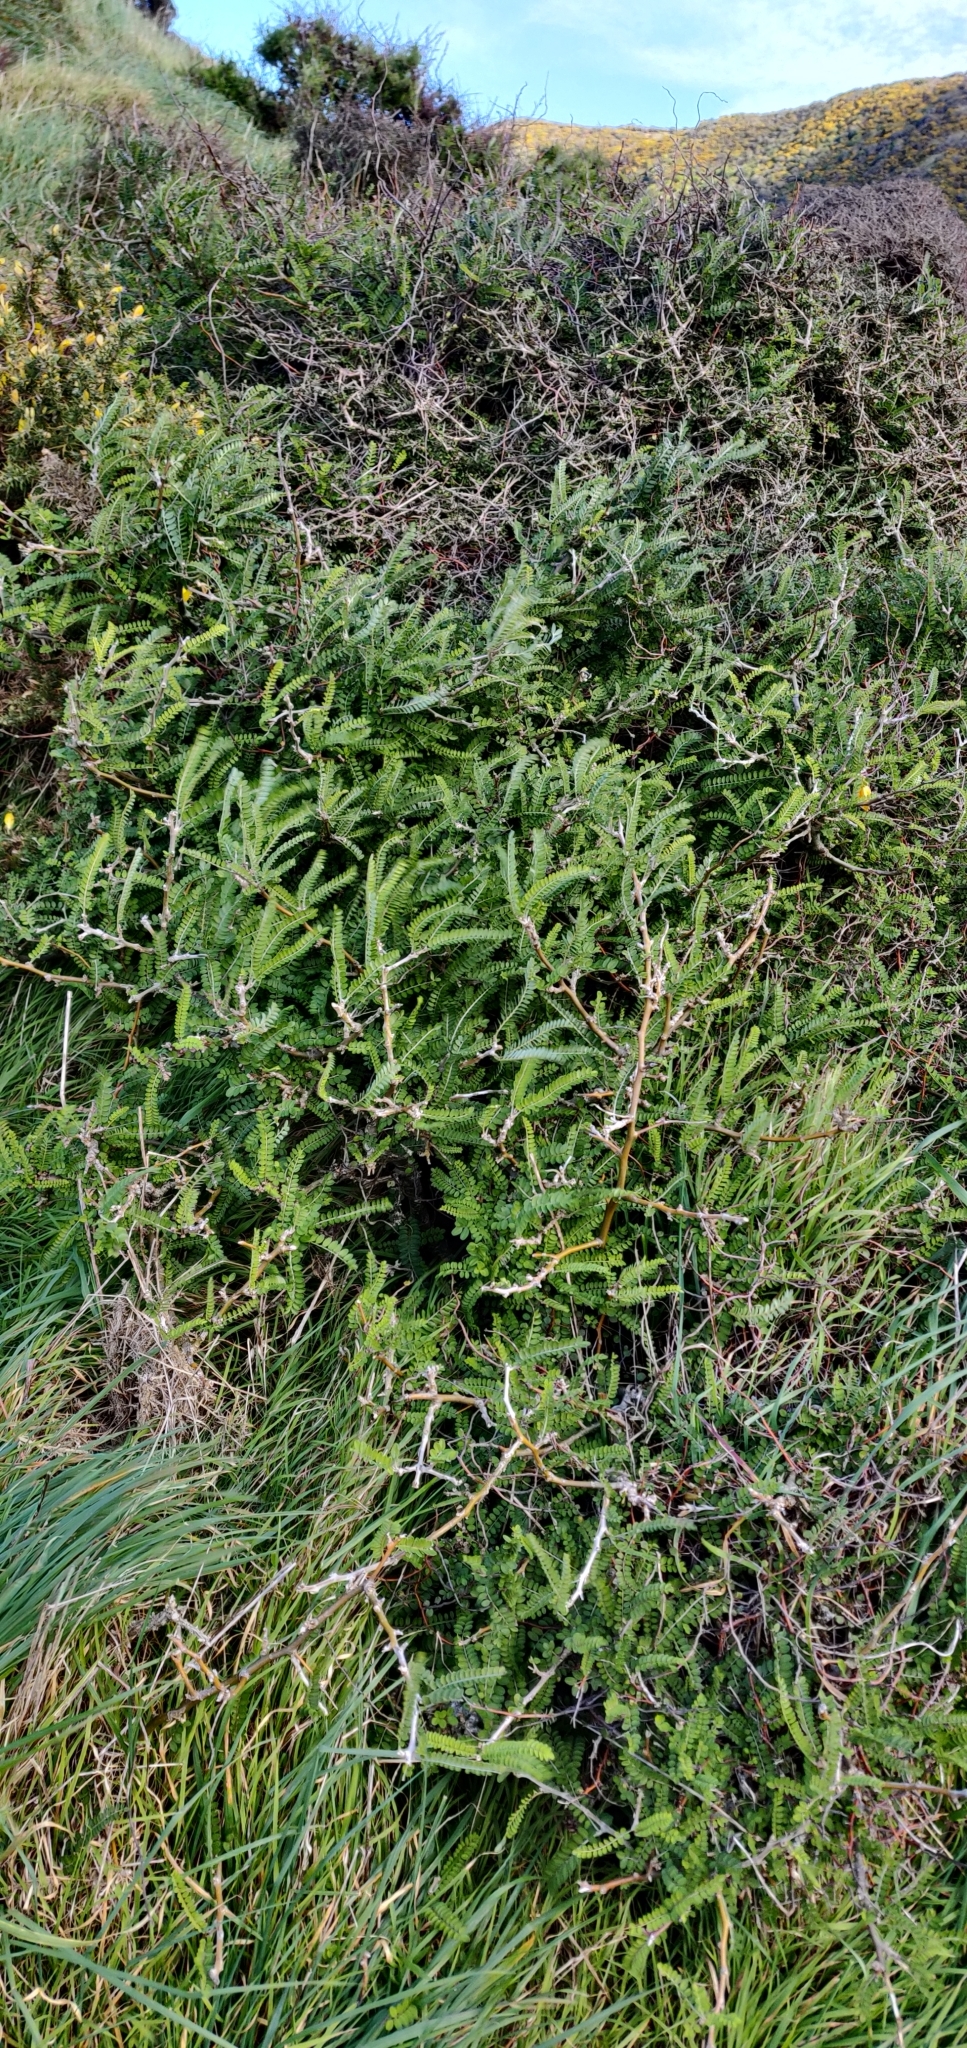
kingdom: Plantae
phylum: Tracheophyta
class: Magnoliopsida
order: Fabales
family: Fabaceae
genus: Sophora
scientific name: Sophora molloyi
